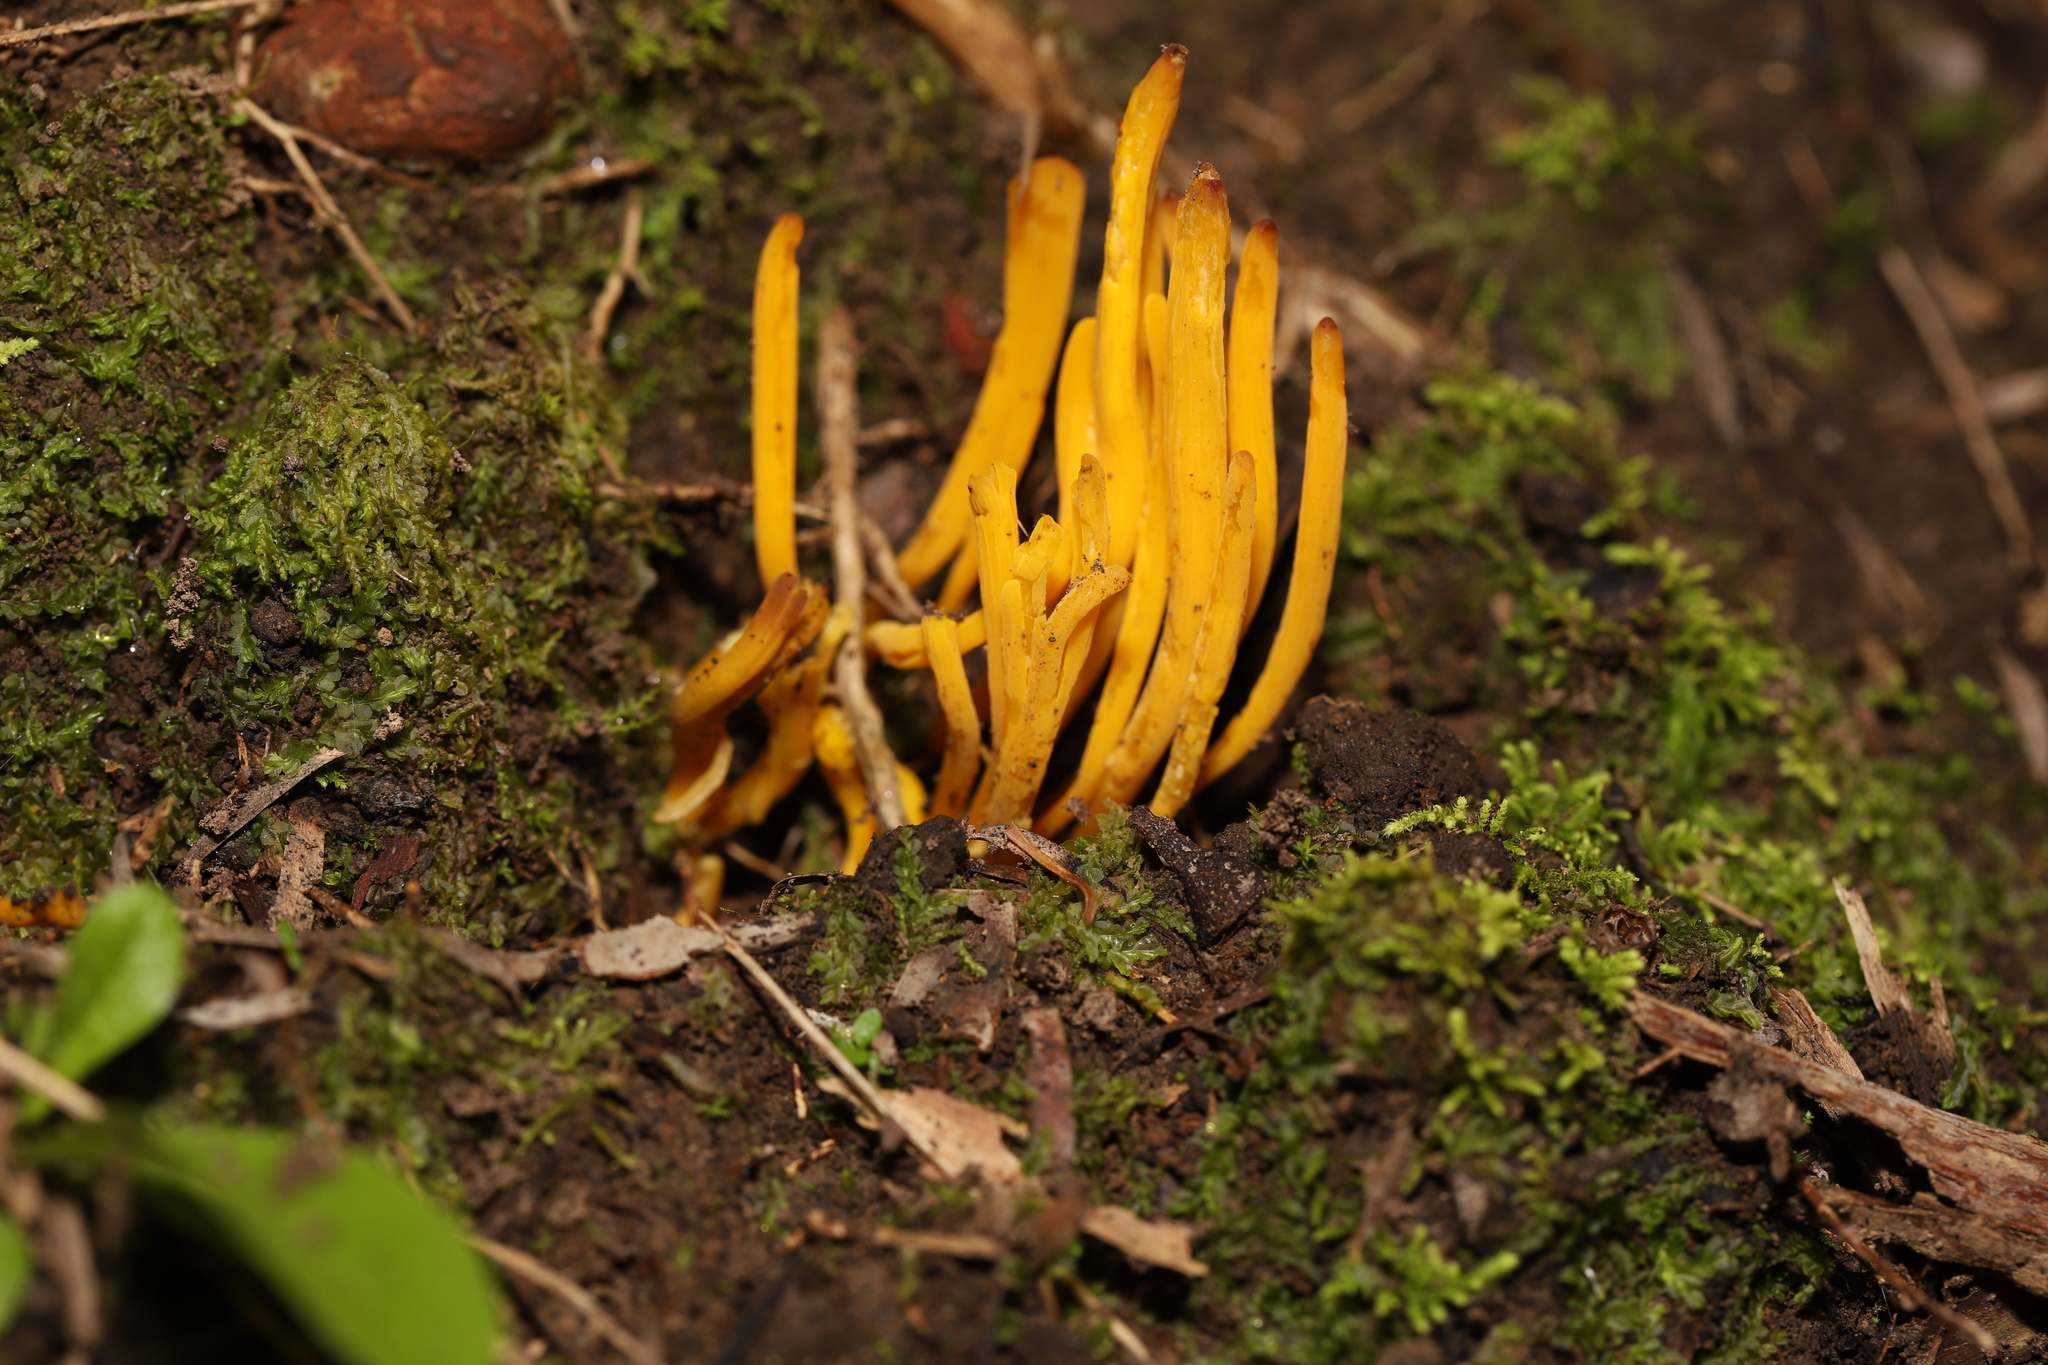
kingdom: Fungi
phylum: Basidiomycota
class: Agaricomycetes
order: Agaricales
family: Clavariaceae
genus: Clavulinopsis
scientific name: Clavulinopsis amoena
